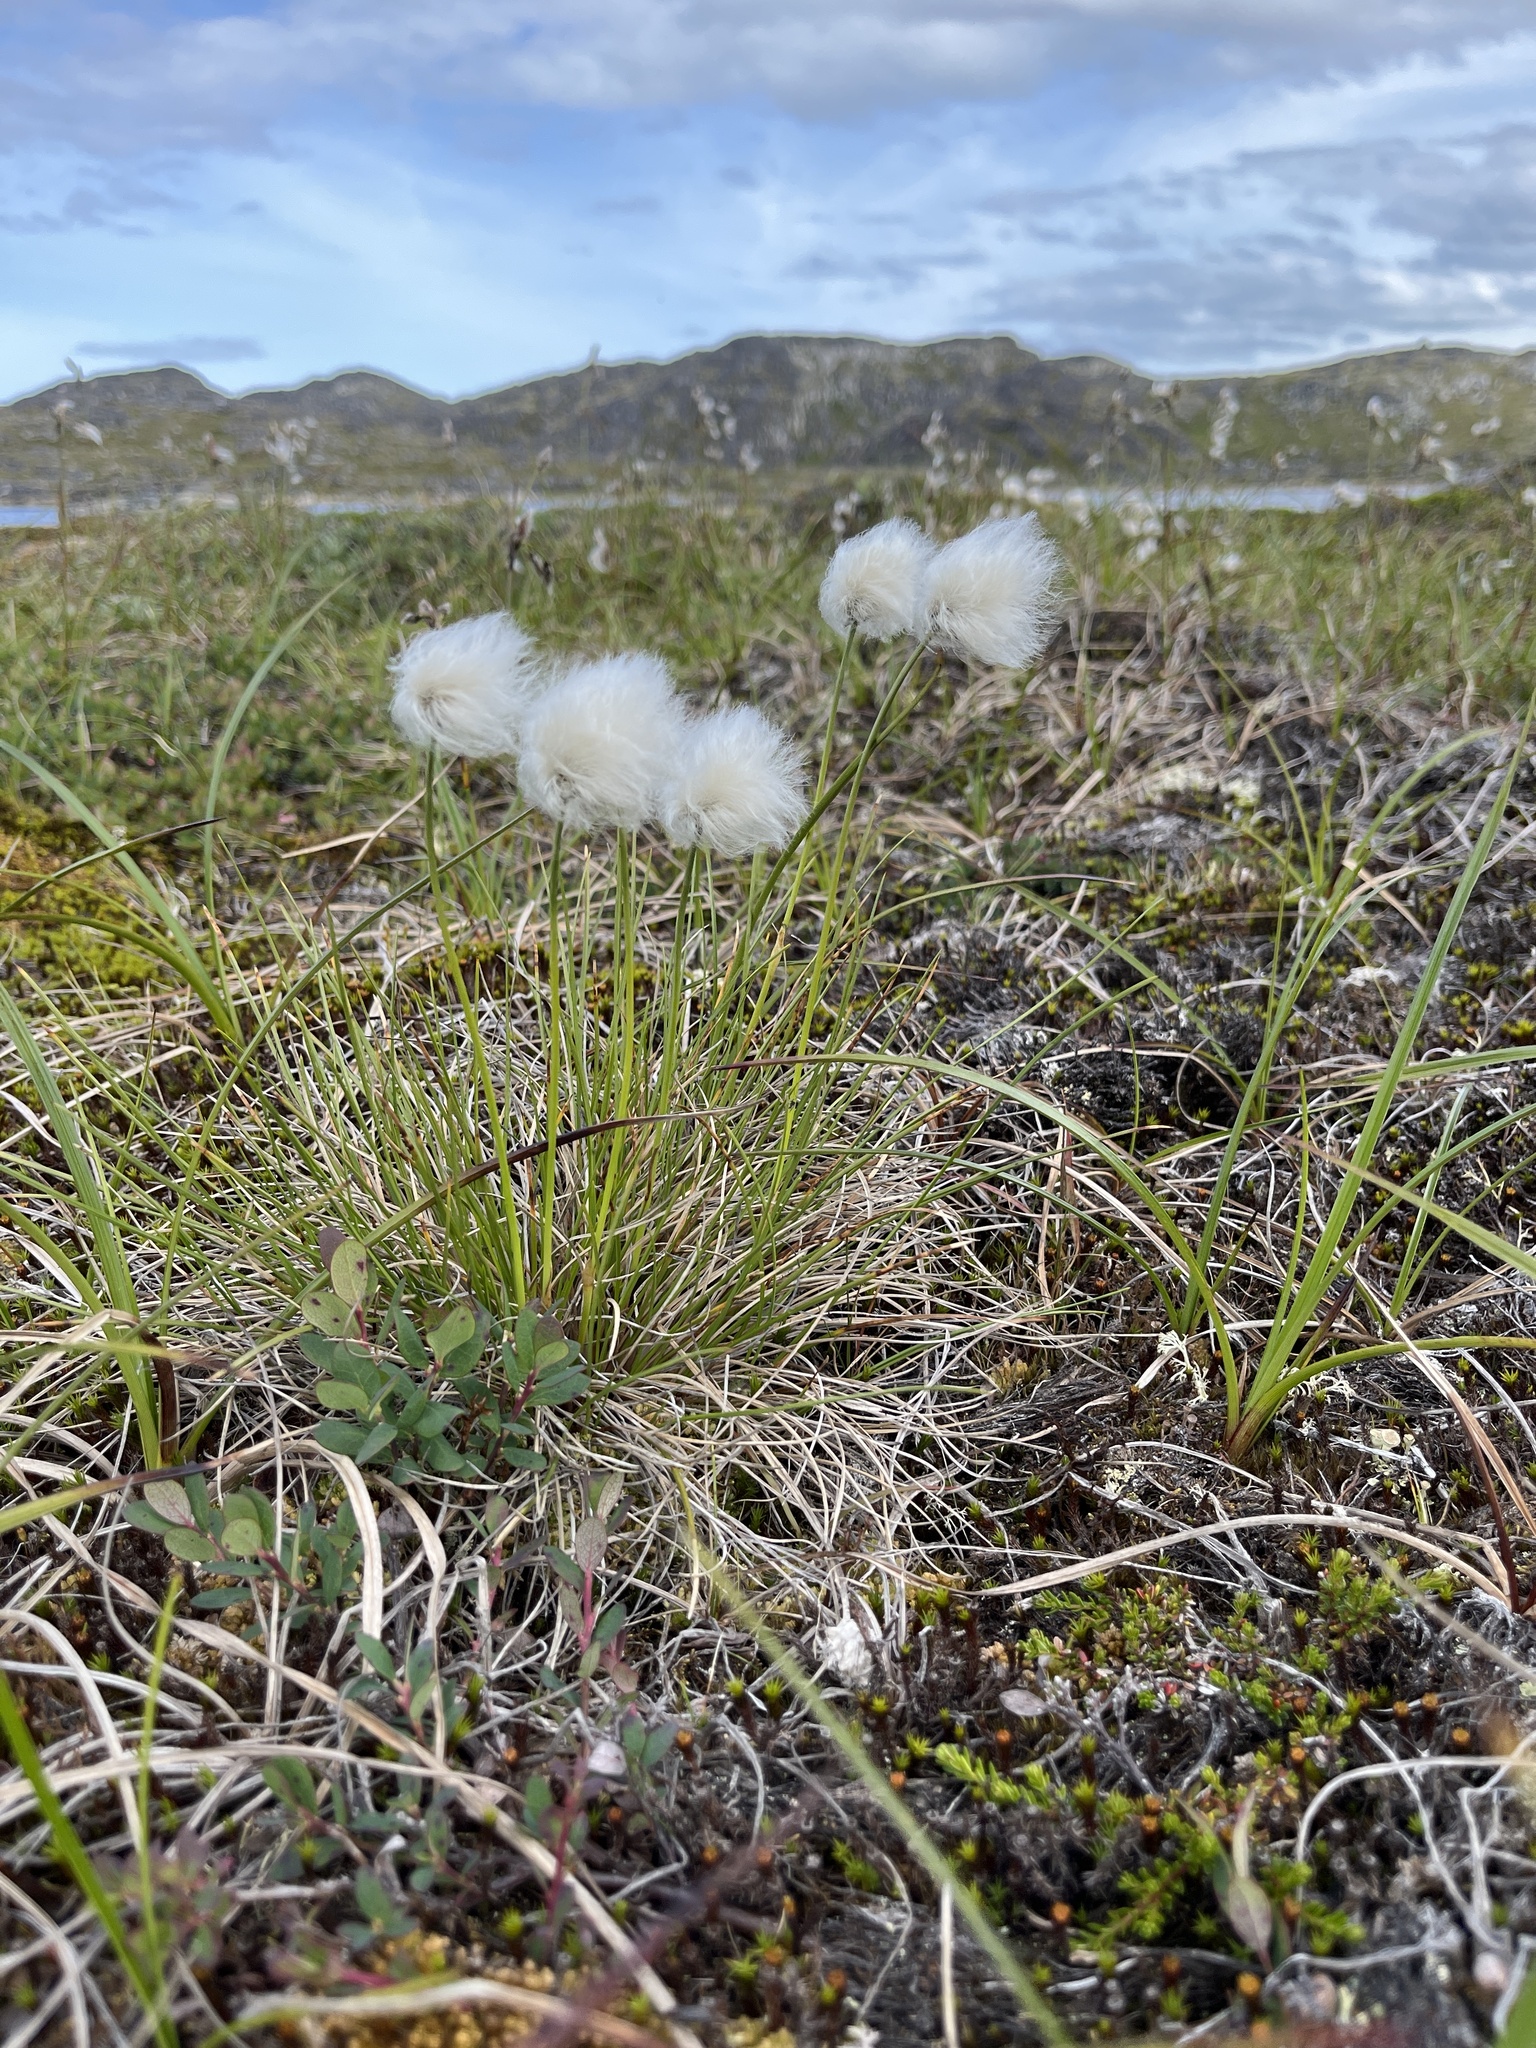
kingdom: Plantae
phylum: Tracheophyta
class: Liliopsida
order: Poales
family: Cyperaceae
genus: Eriophorum
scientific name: Eriophorum vaginatum
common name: Hare's-tail cottongrass
